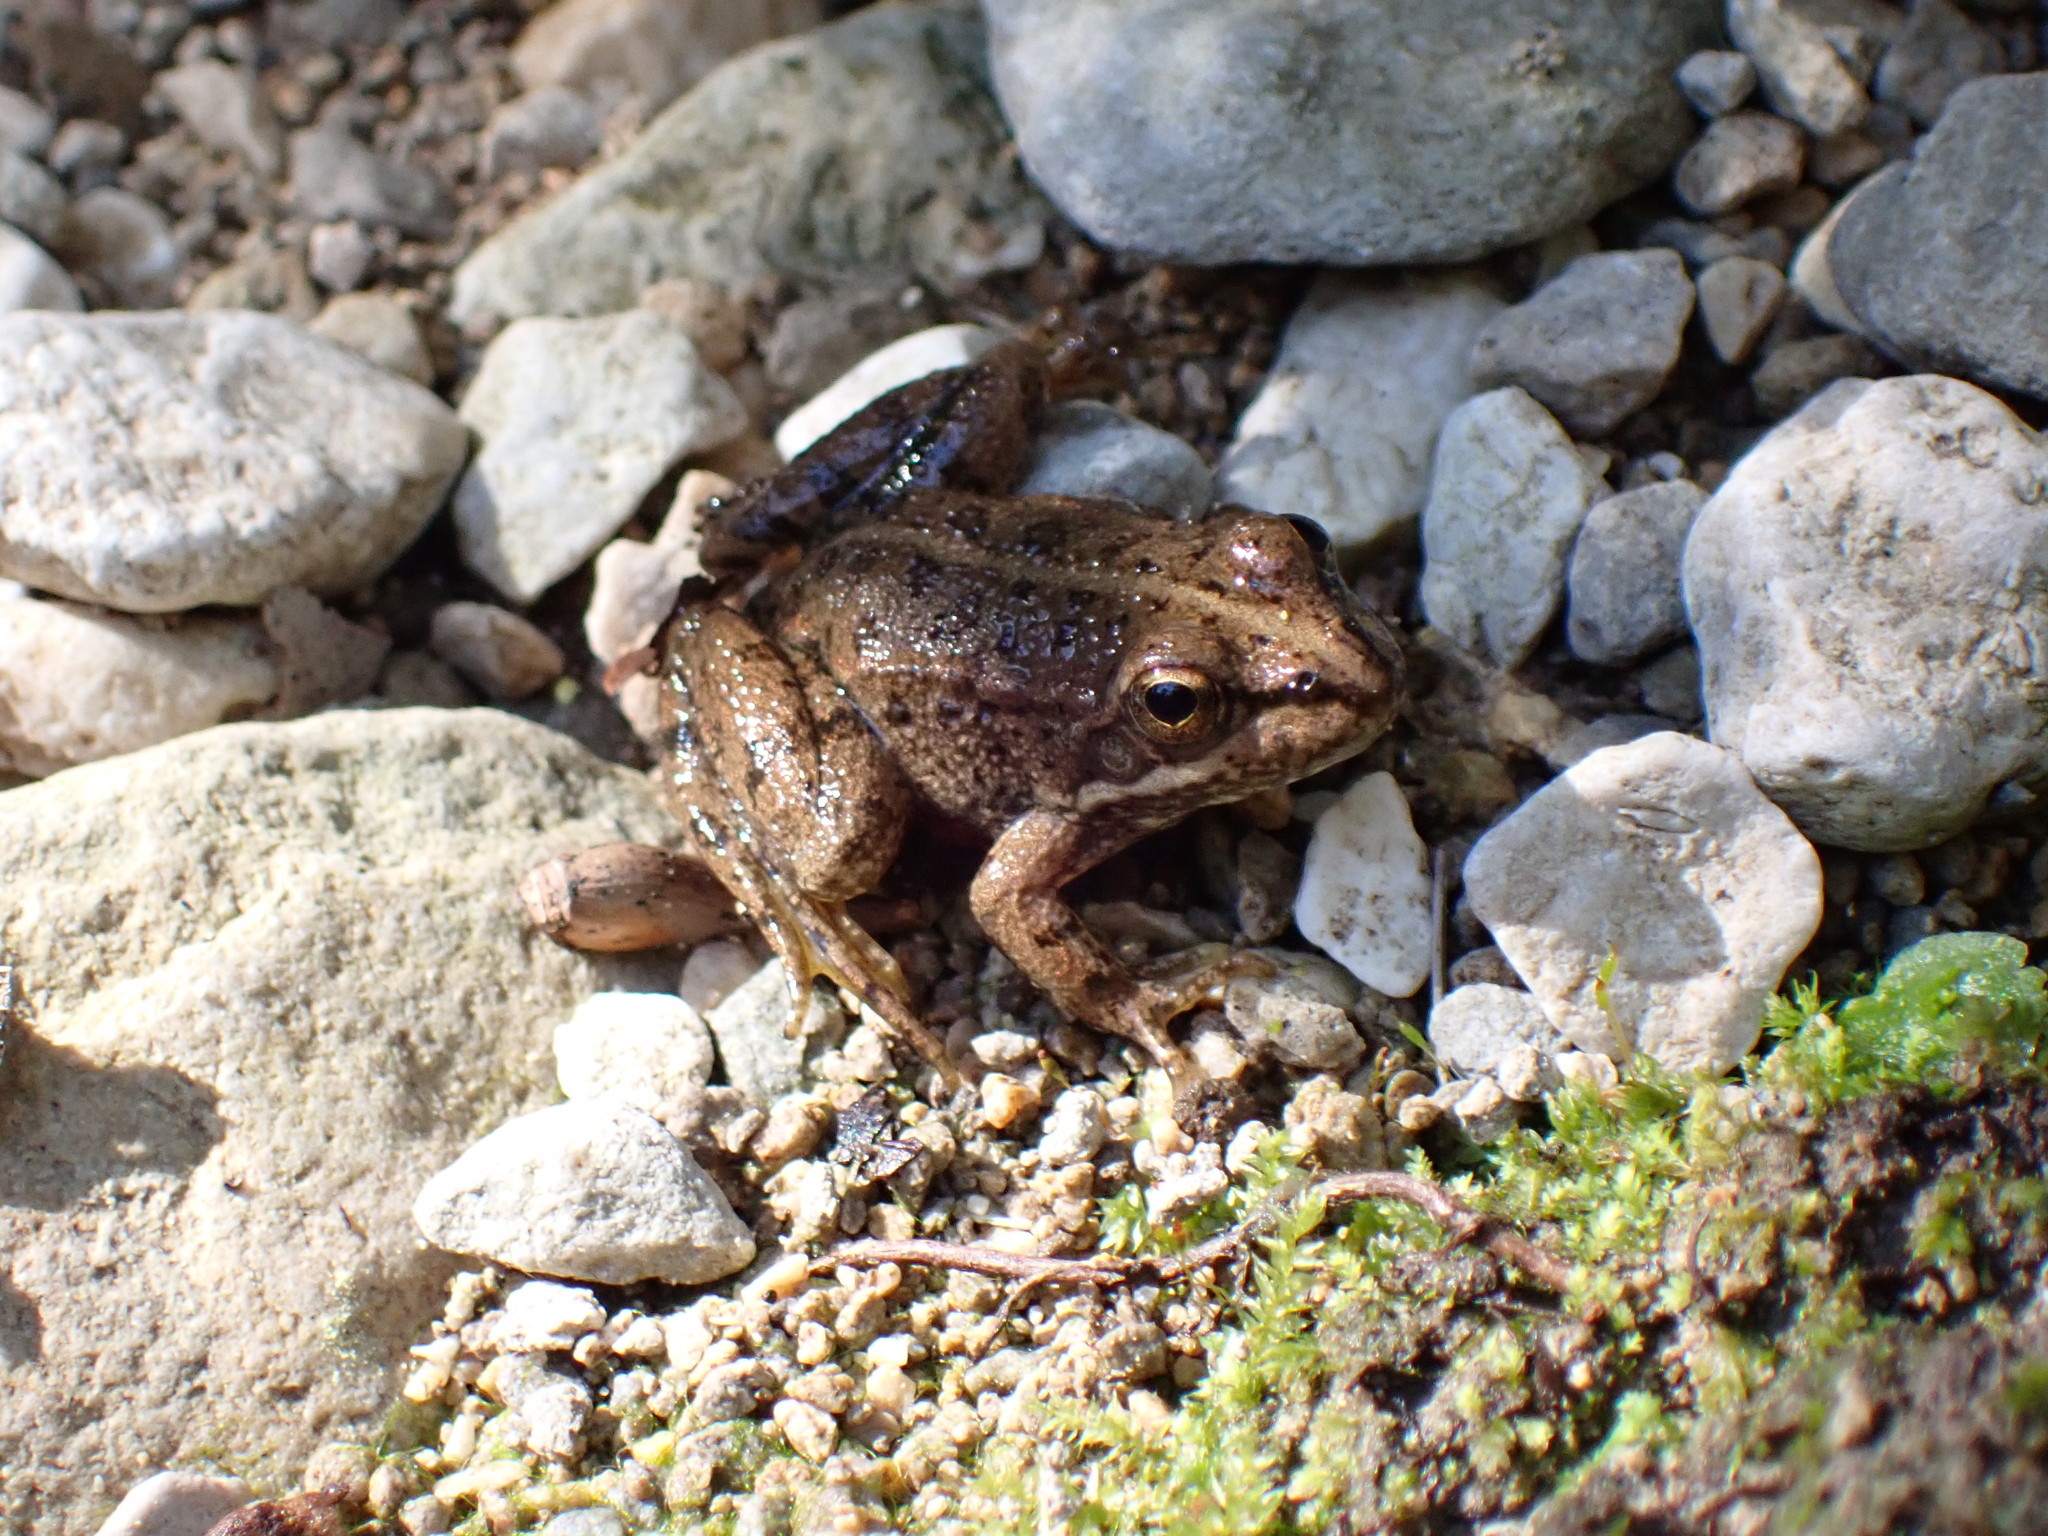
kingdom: Animalia
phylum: Chordata
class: Amphibia
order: Anura
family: Ranidae
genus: Pelophylax
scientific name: Pelophylax perezi
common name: Perez's frog
